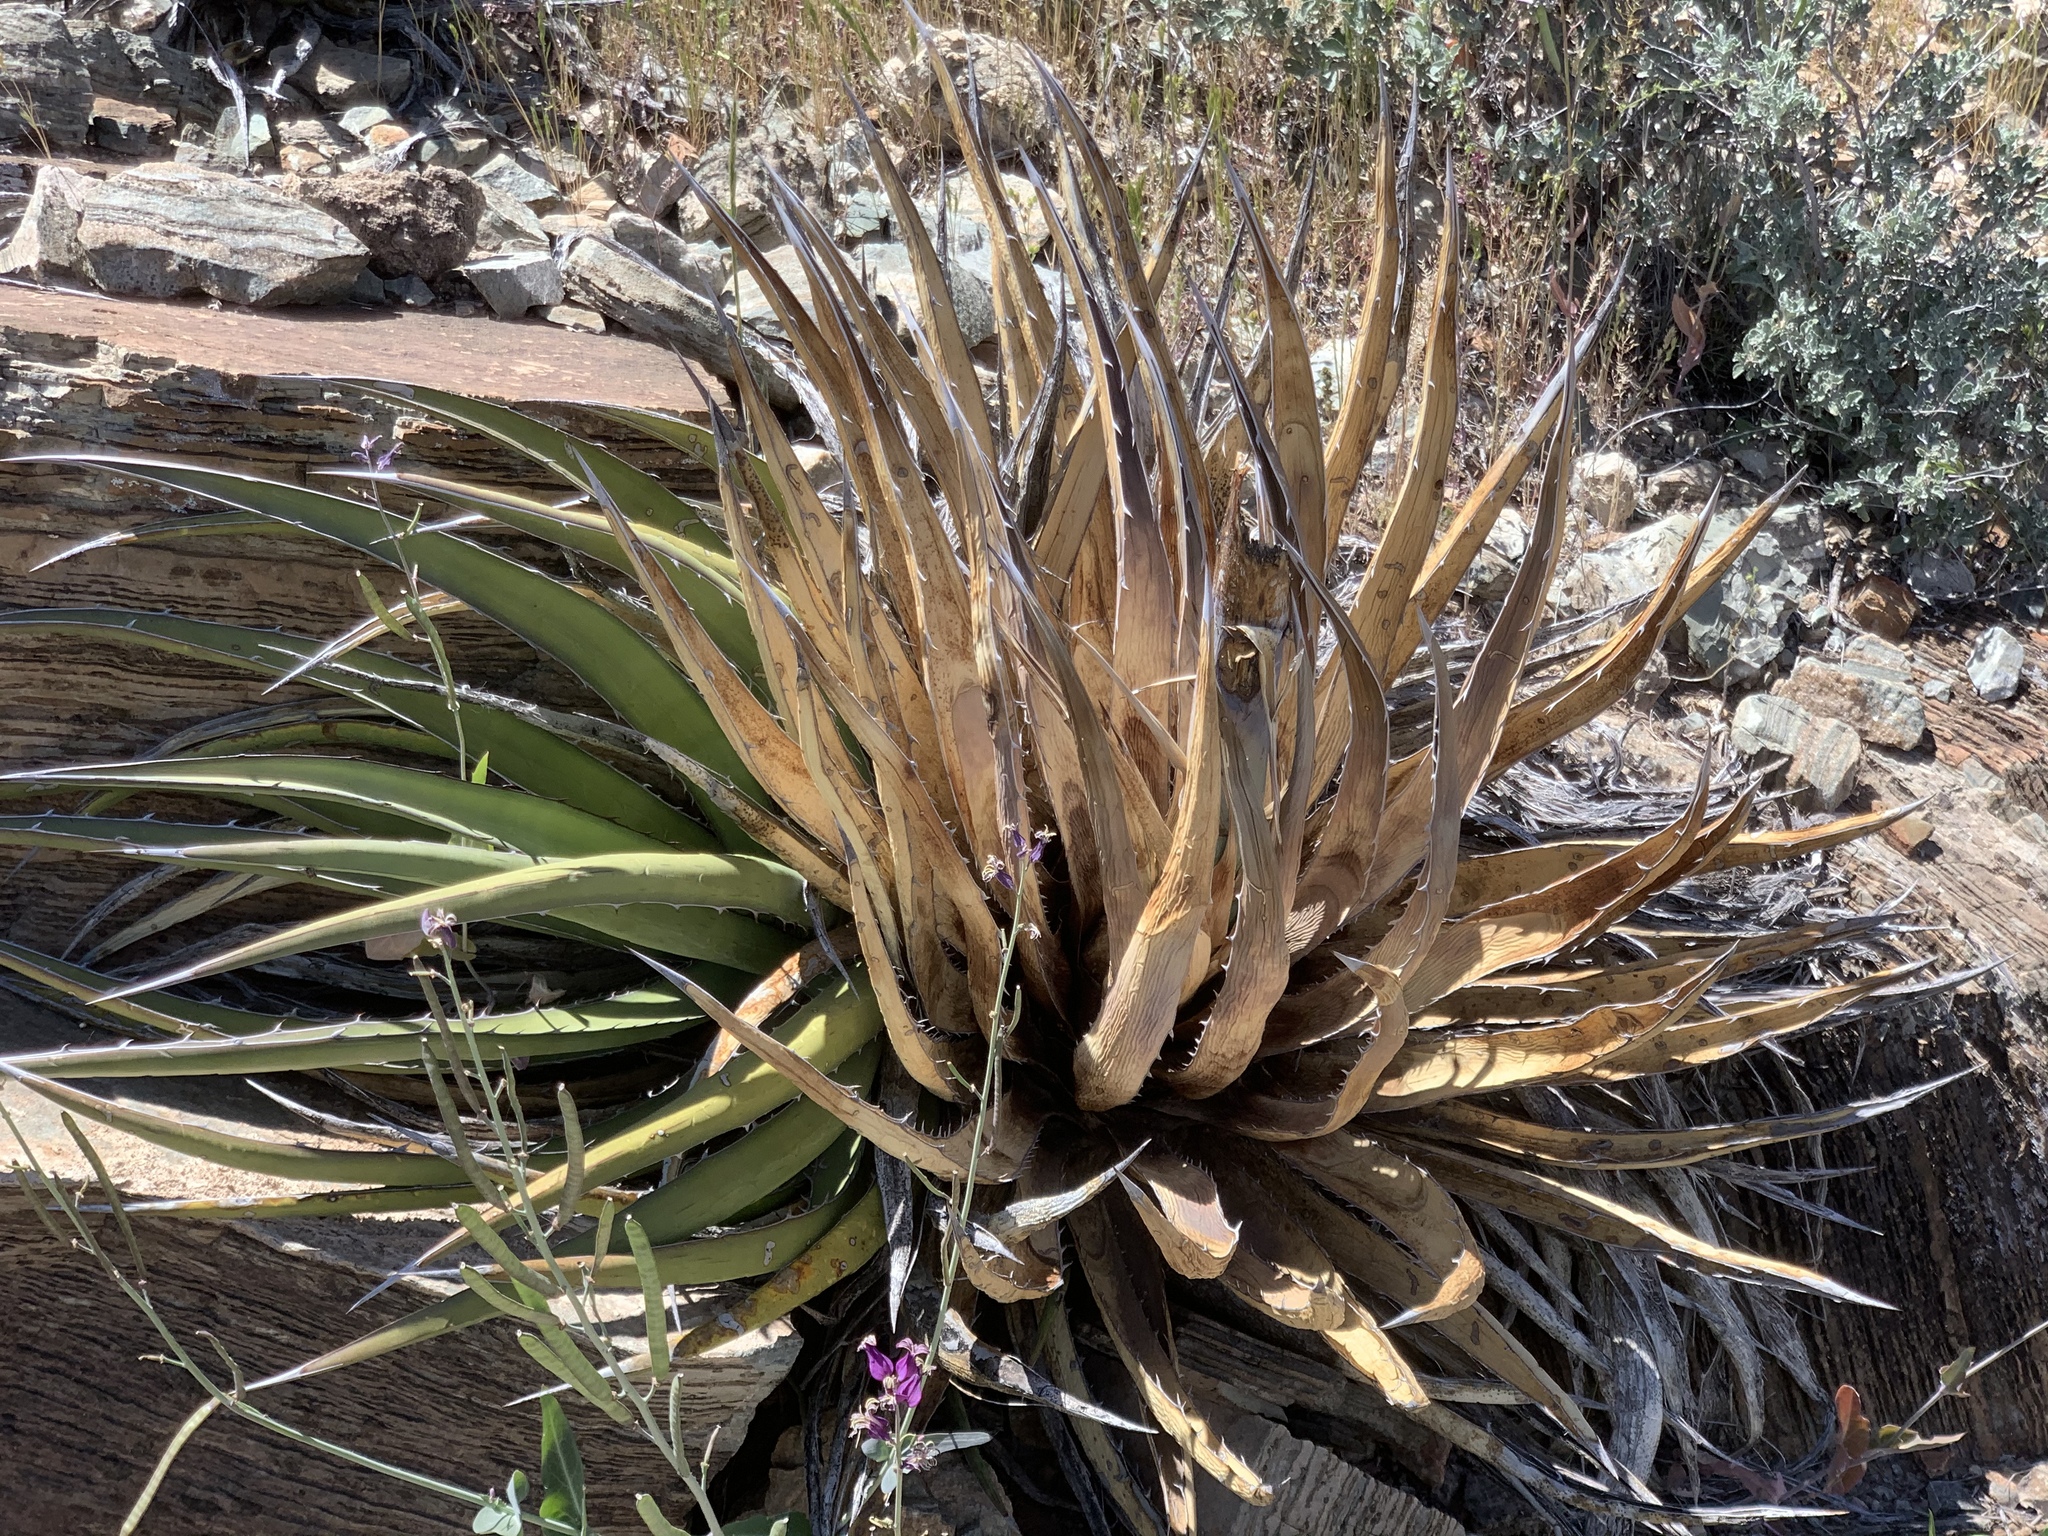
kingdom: Plantae
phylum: Tracheophyta
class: Liliopsida
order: Asparagales
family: Asparagaceae
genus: Agave
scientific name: Agave lechuguilla
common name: Lecheguilla agave
